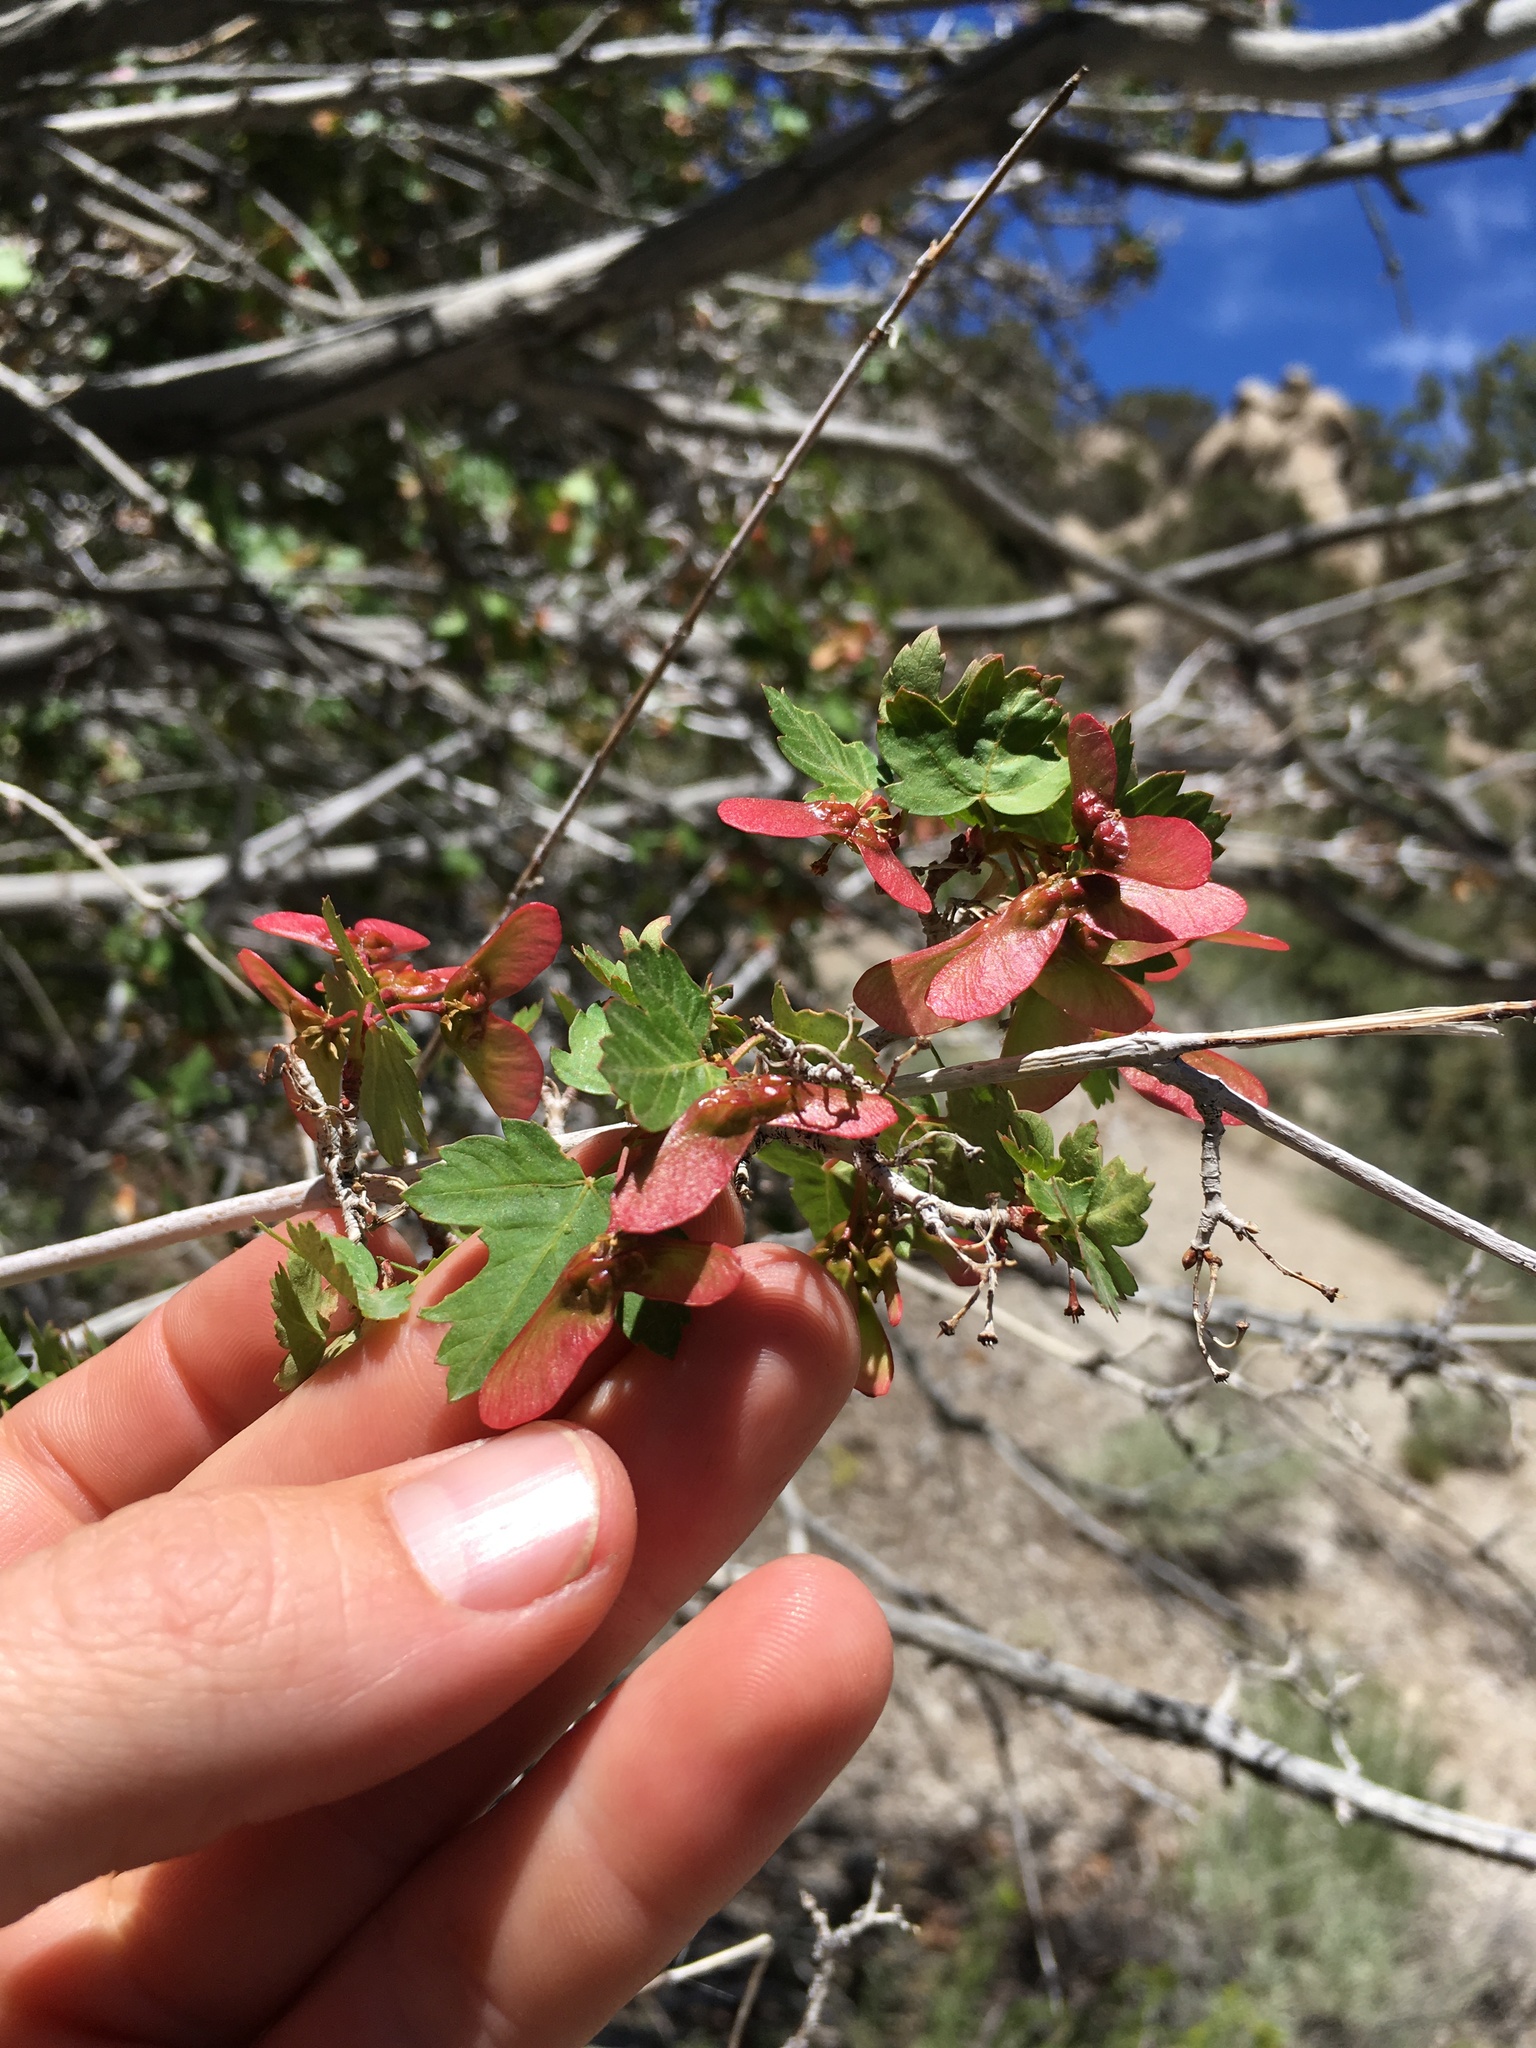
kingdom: Plantae
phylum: Tracheophyta
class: Magnoliopsida
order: Sapindales
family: Sapindaceae
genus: Acer
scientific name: Acer glabrum
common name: Rocky mountain maple
